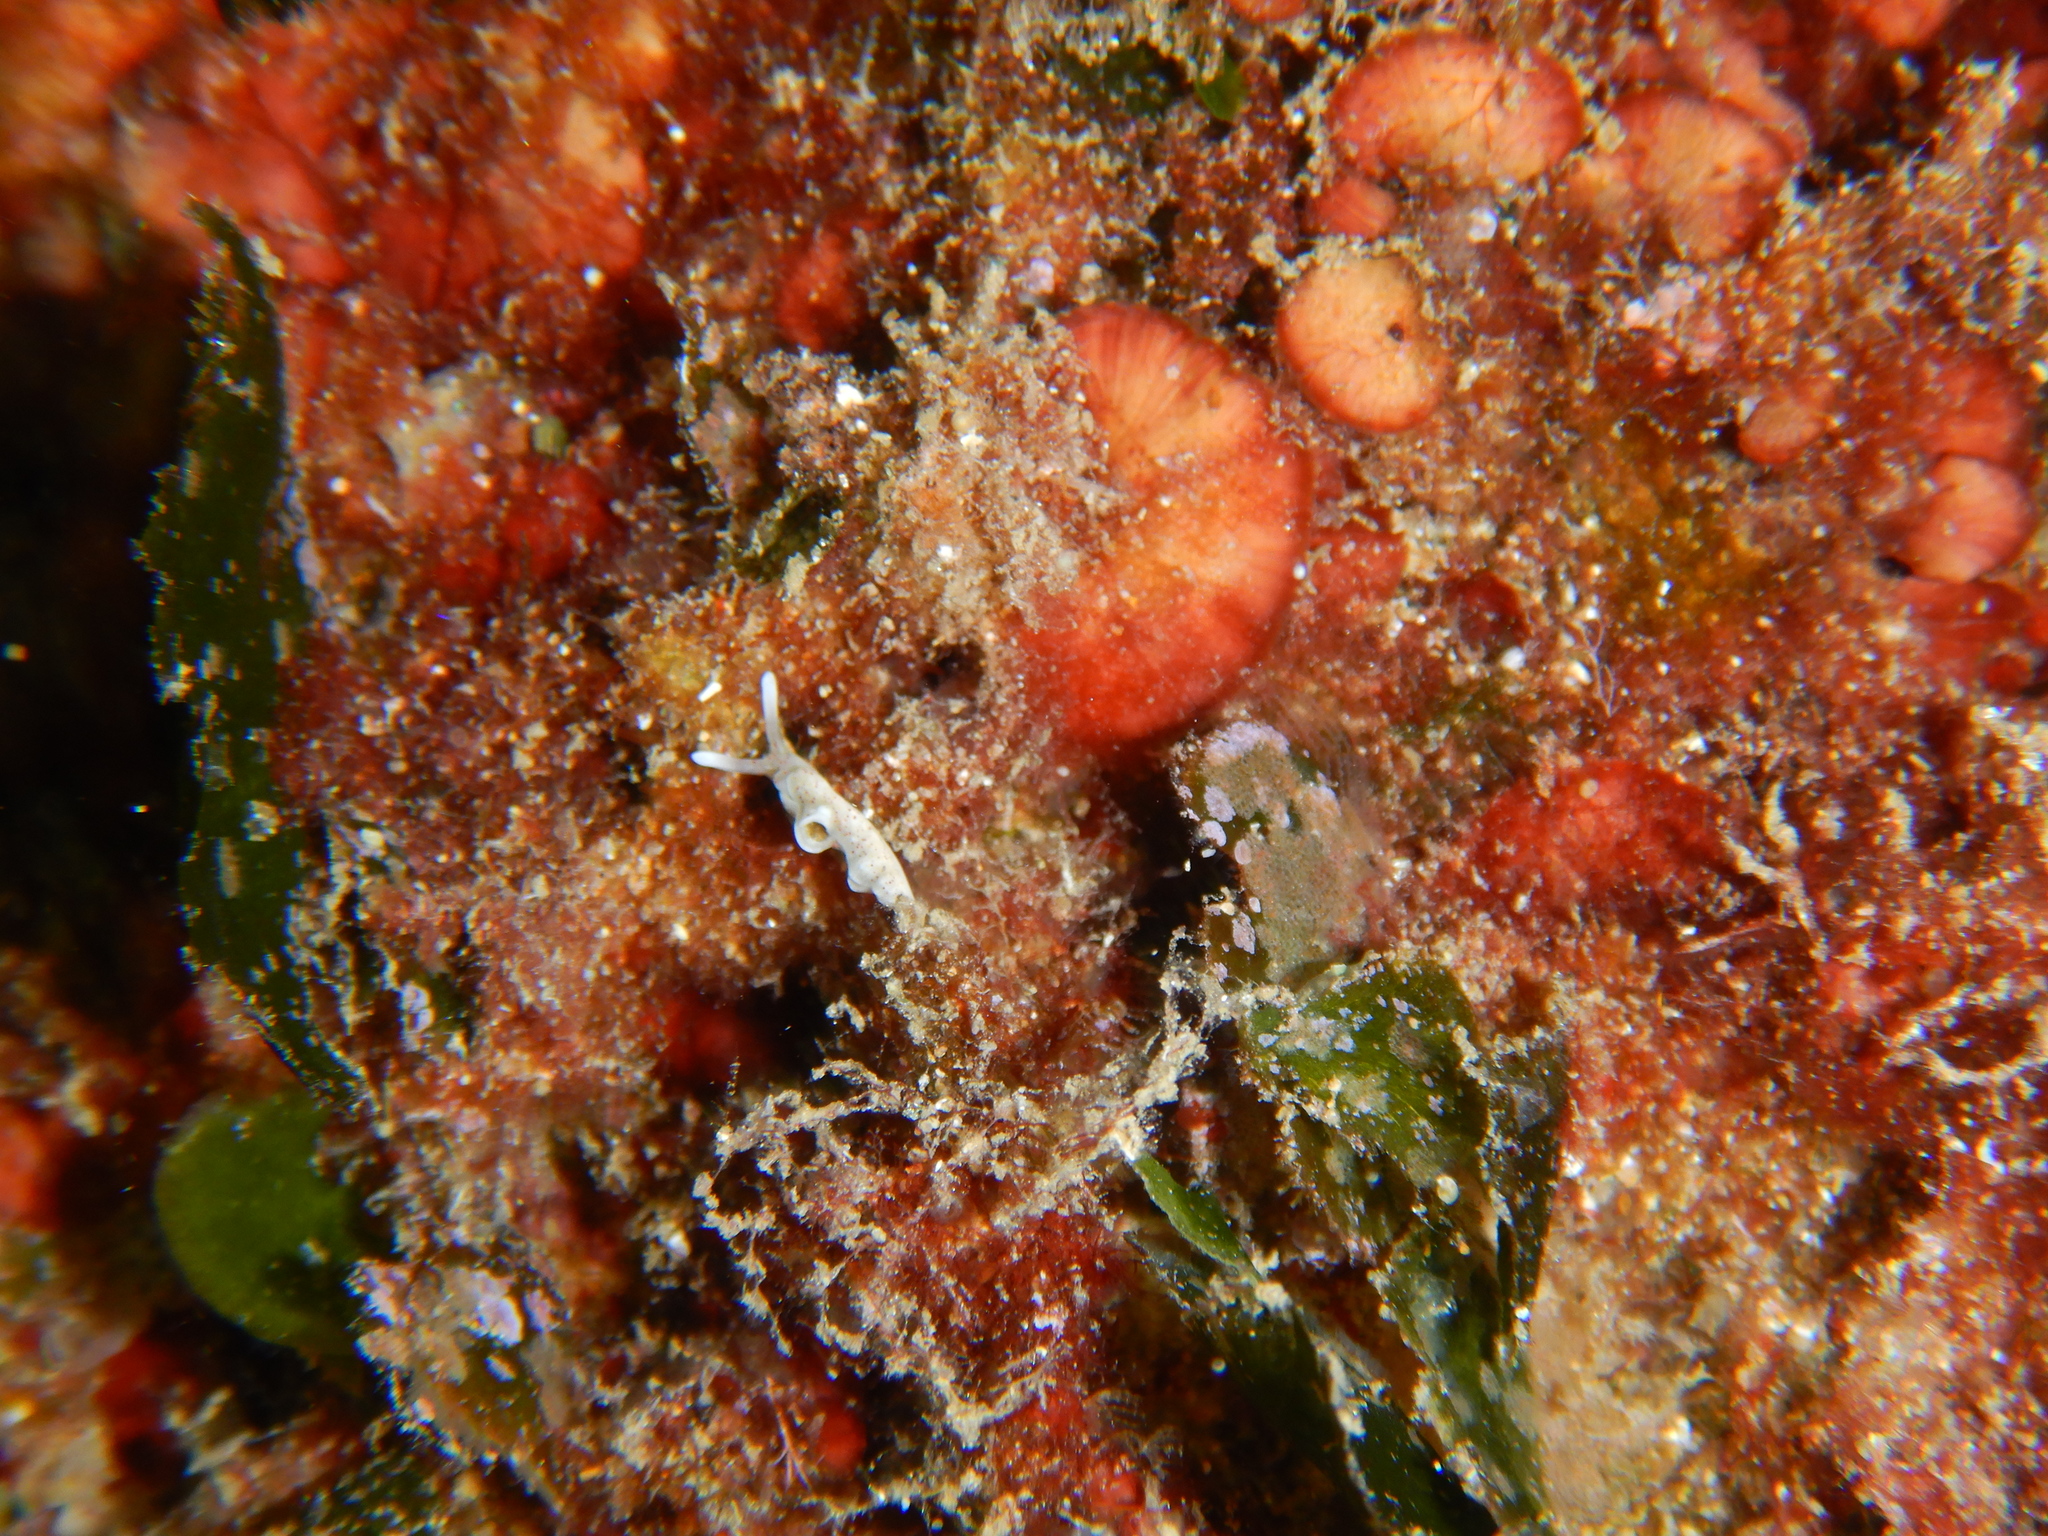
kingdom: Animalia
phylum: Mollusca
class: Gastropoda
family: Plakobranchidae
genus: Elysia
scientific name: Elysia timida
